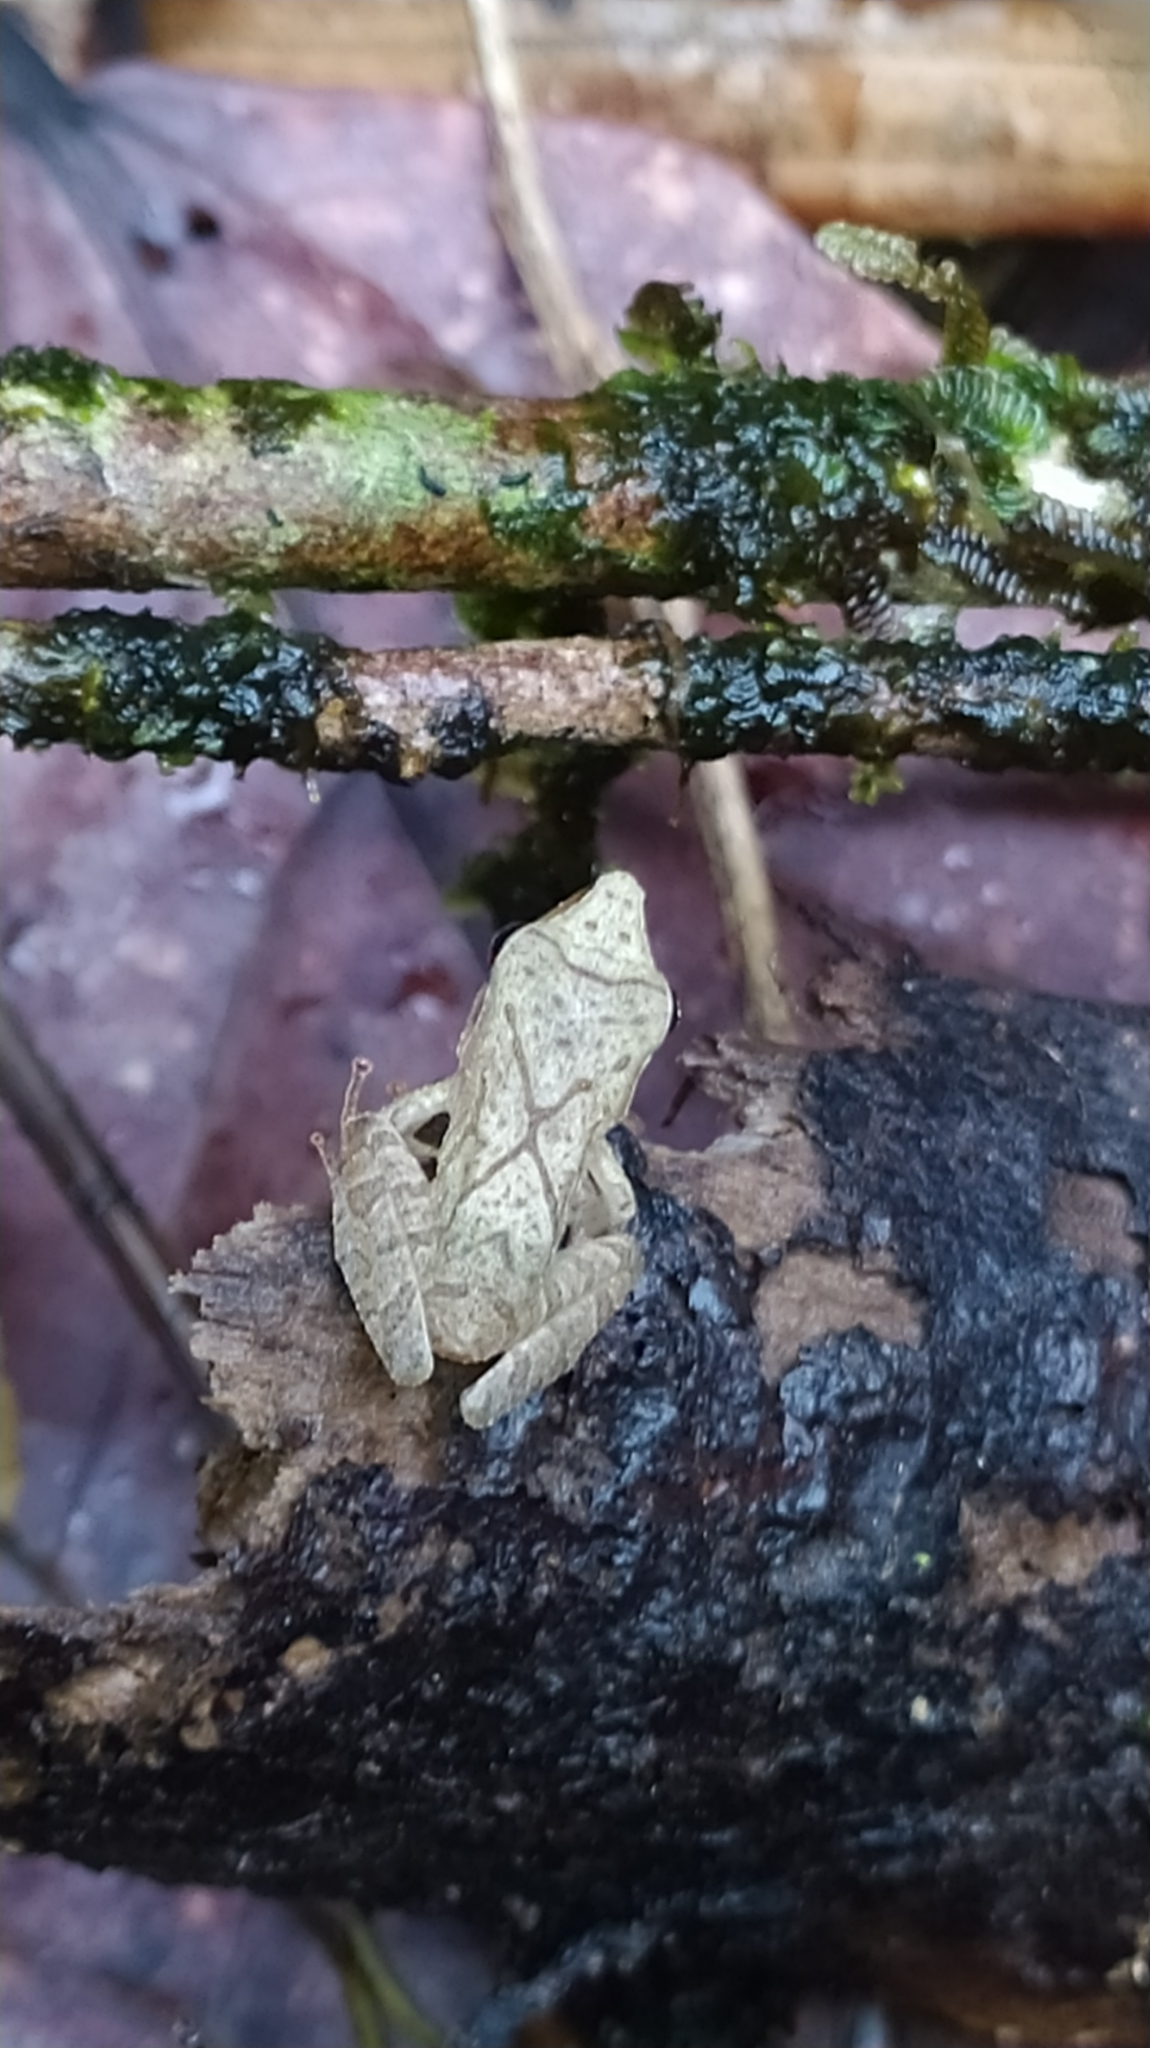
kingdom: Animalia
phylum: Chordata
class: Amphibia
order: Anura
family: Craugastoridae
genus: Pristimantis
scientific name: Pristimantis chiastonotus
